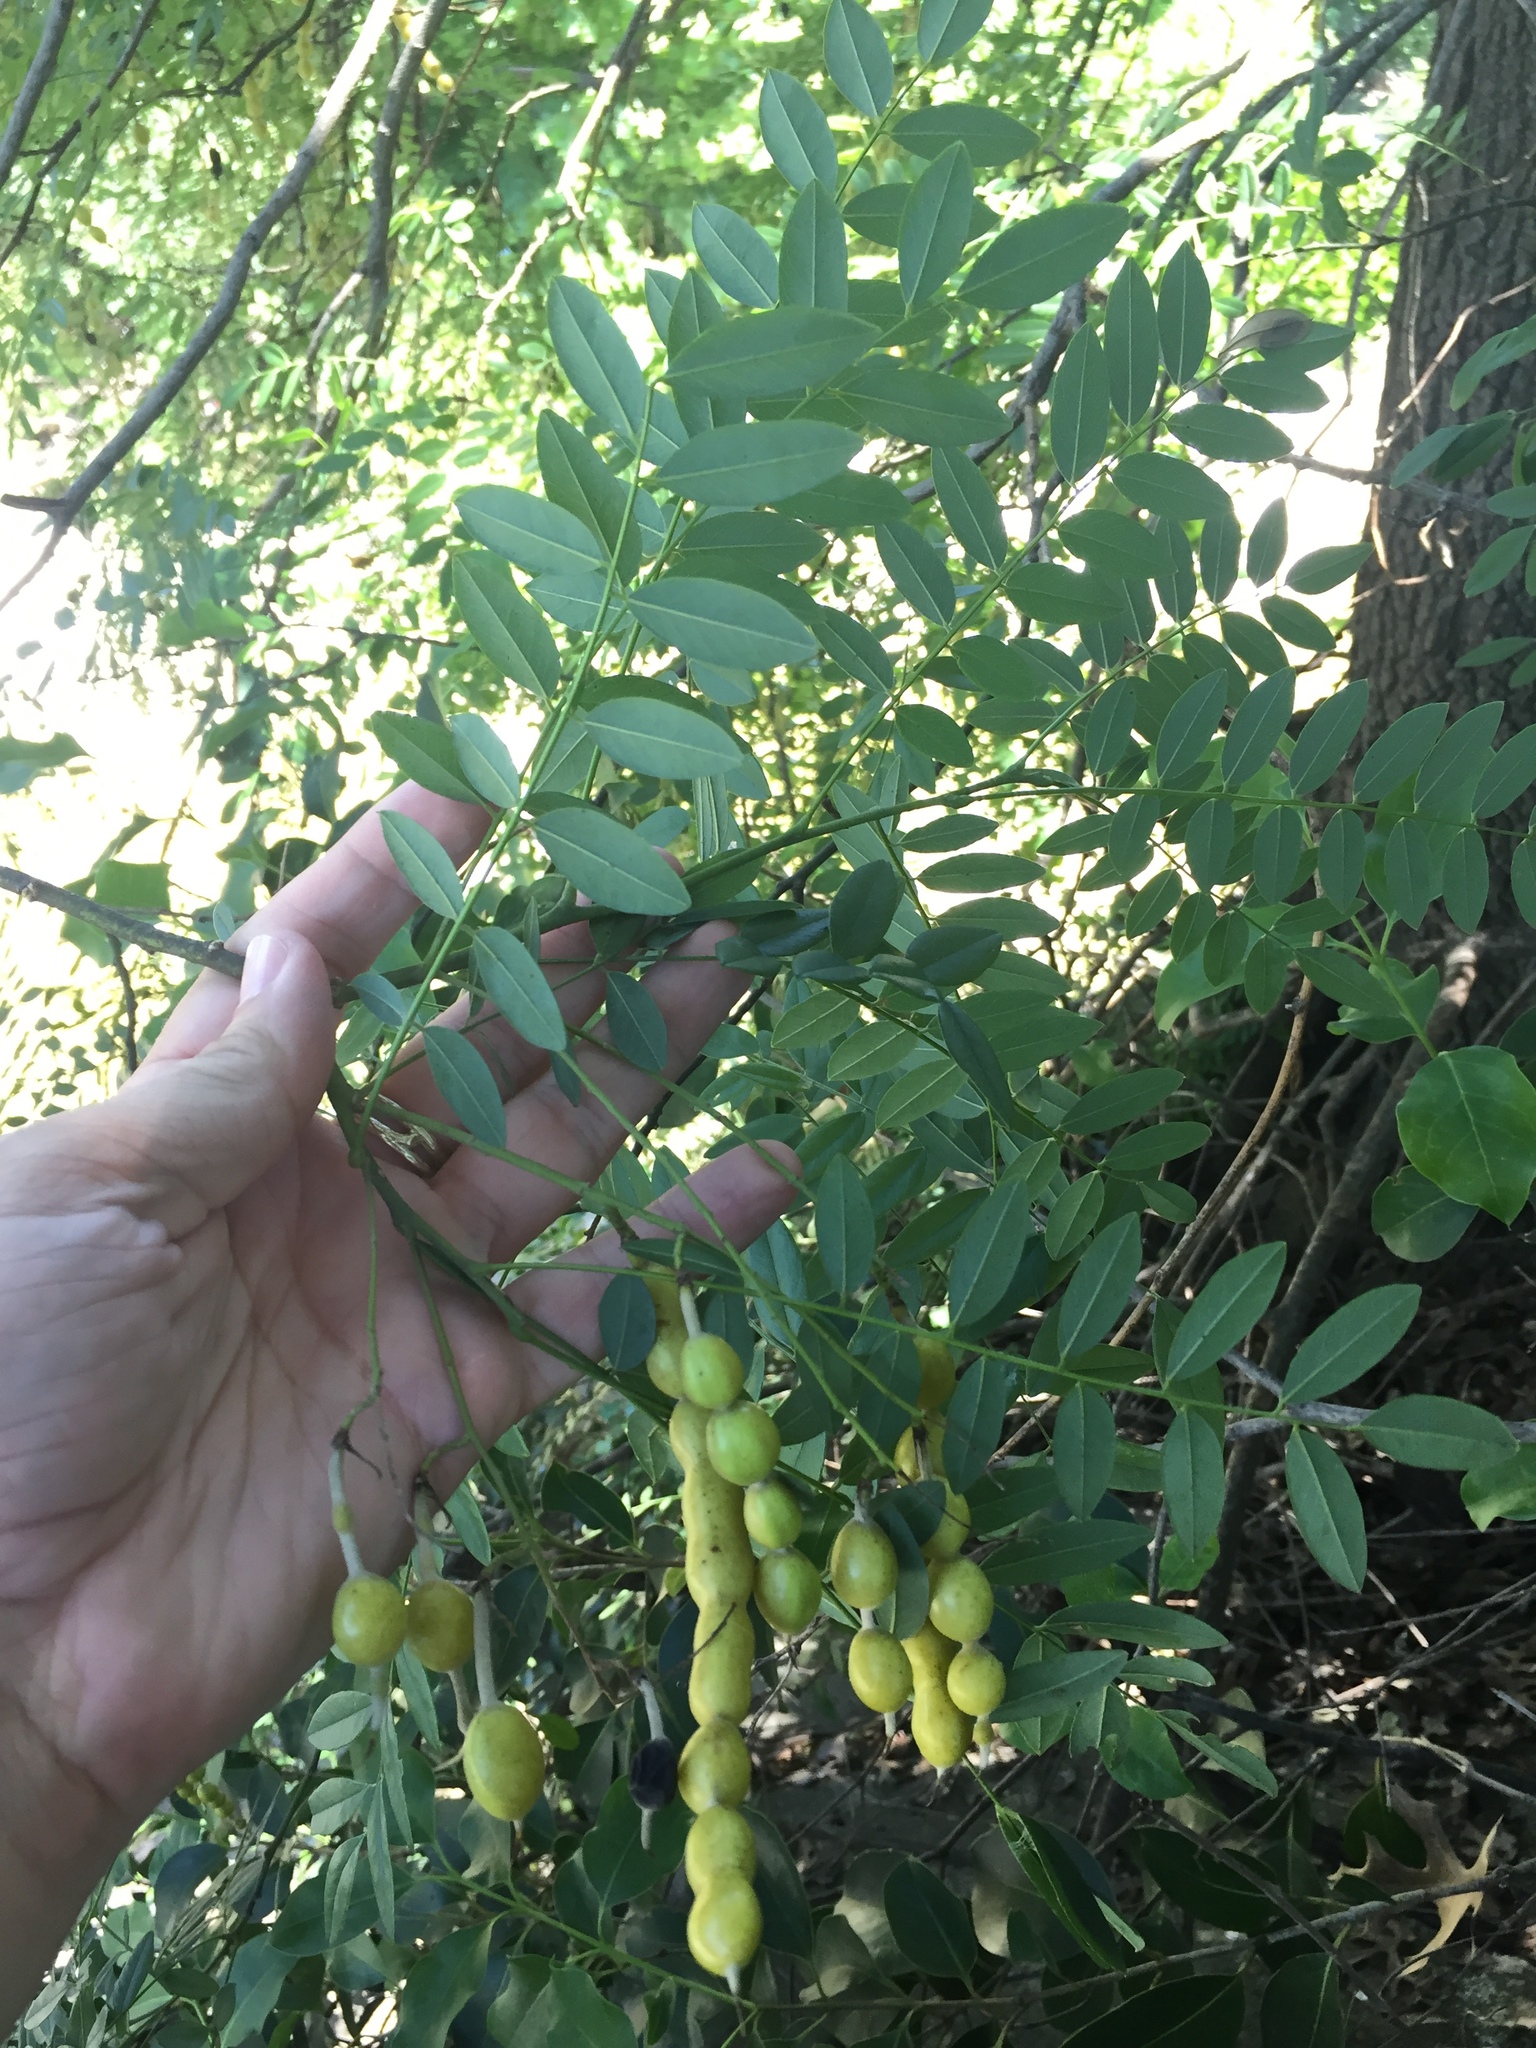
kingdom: Plantae
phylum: Tracheophyta
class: Magnoliopsida
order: Fabales
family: Fabaceae
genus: Styphnolobium
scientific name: Styphnolobium affine
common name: Texas sophora
